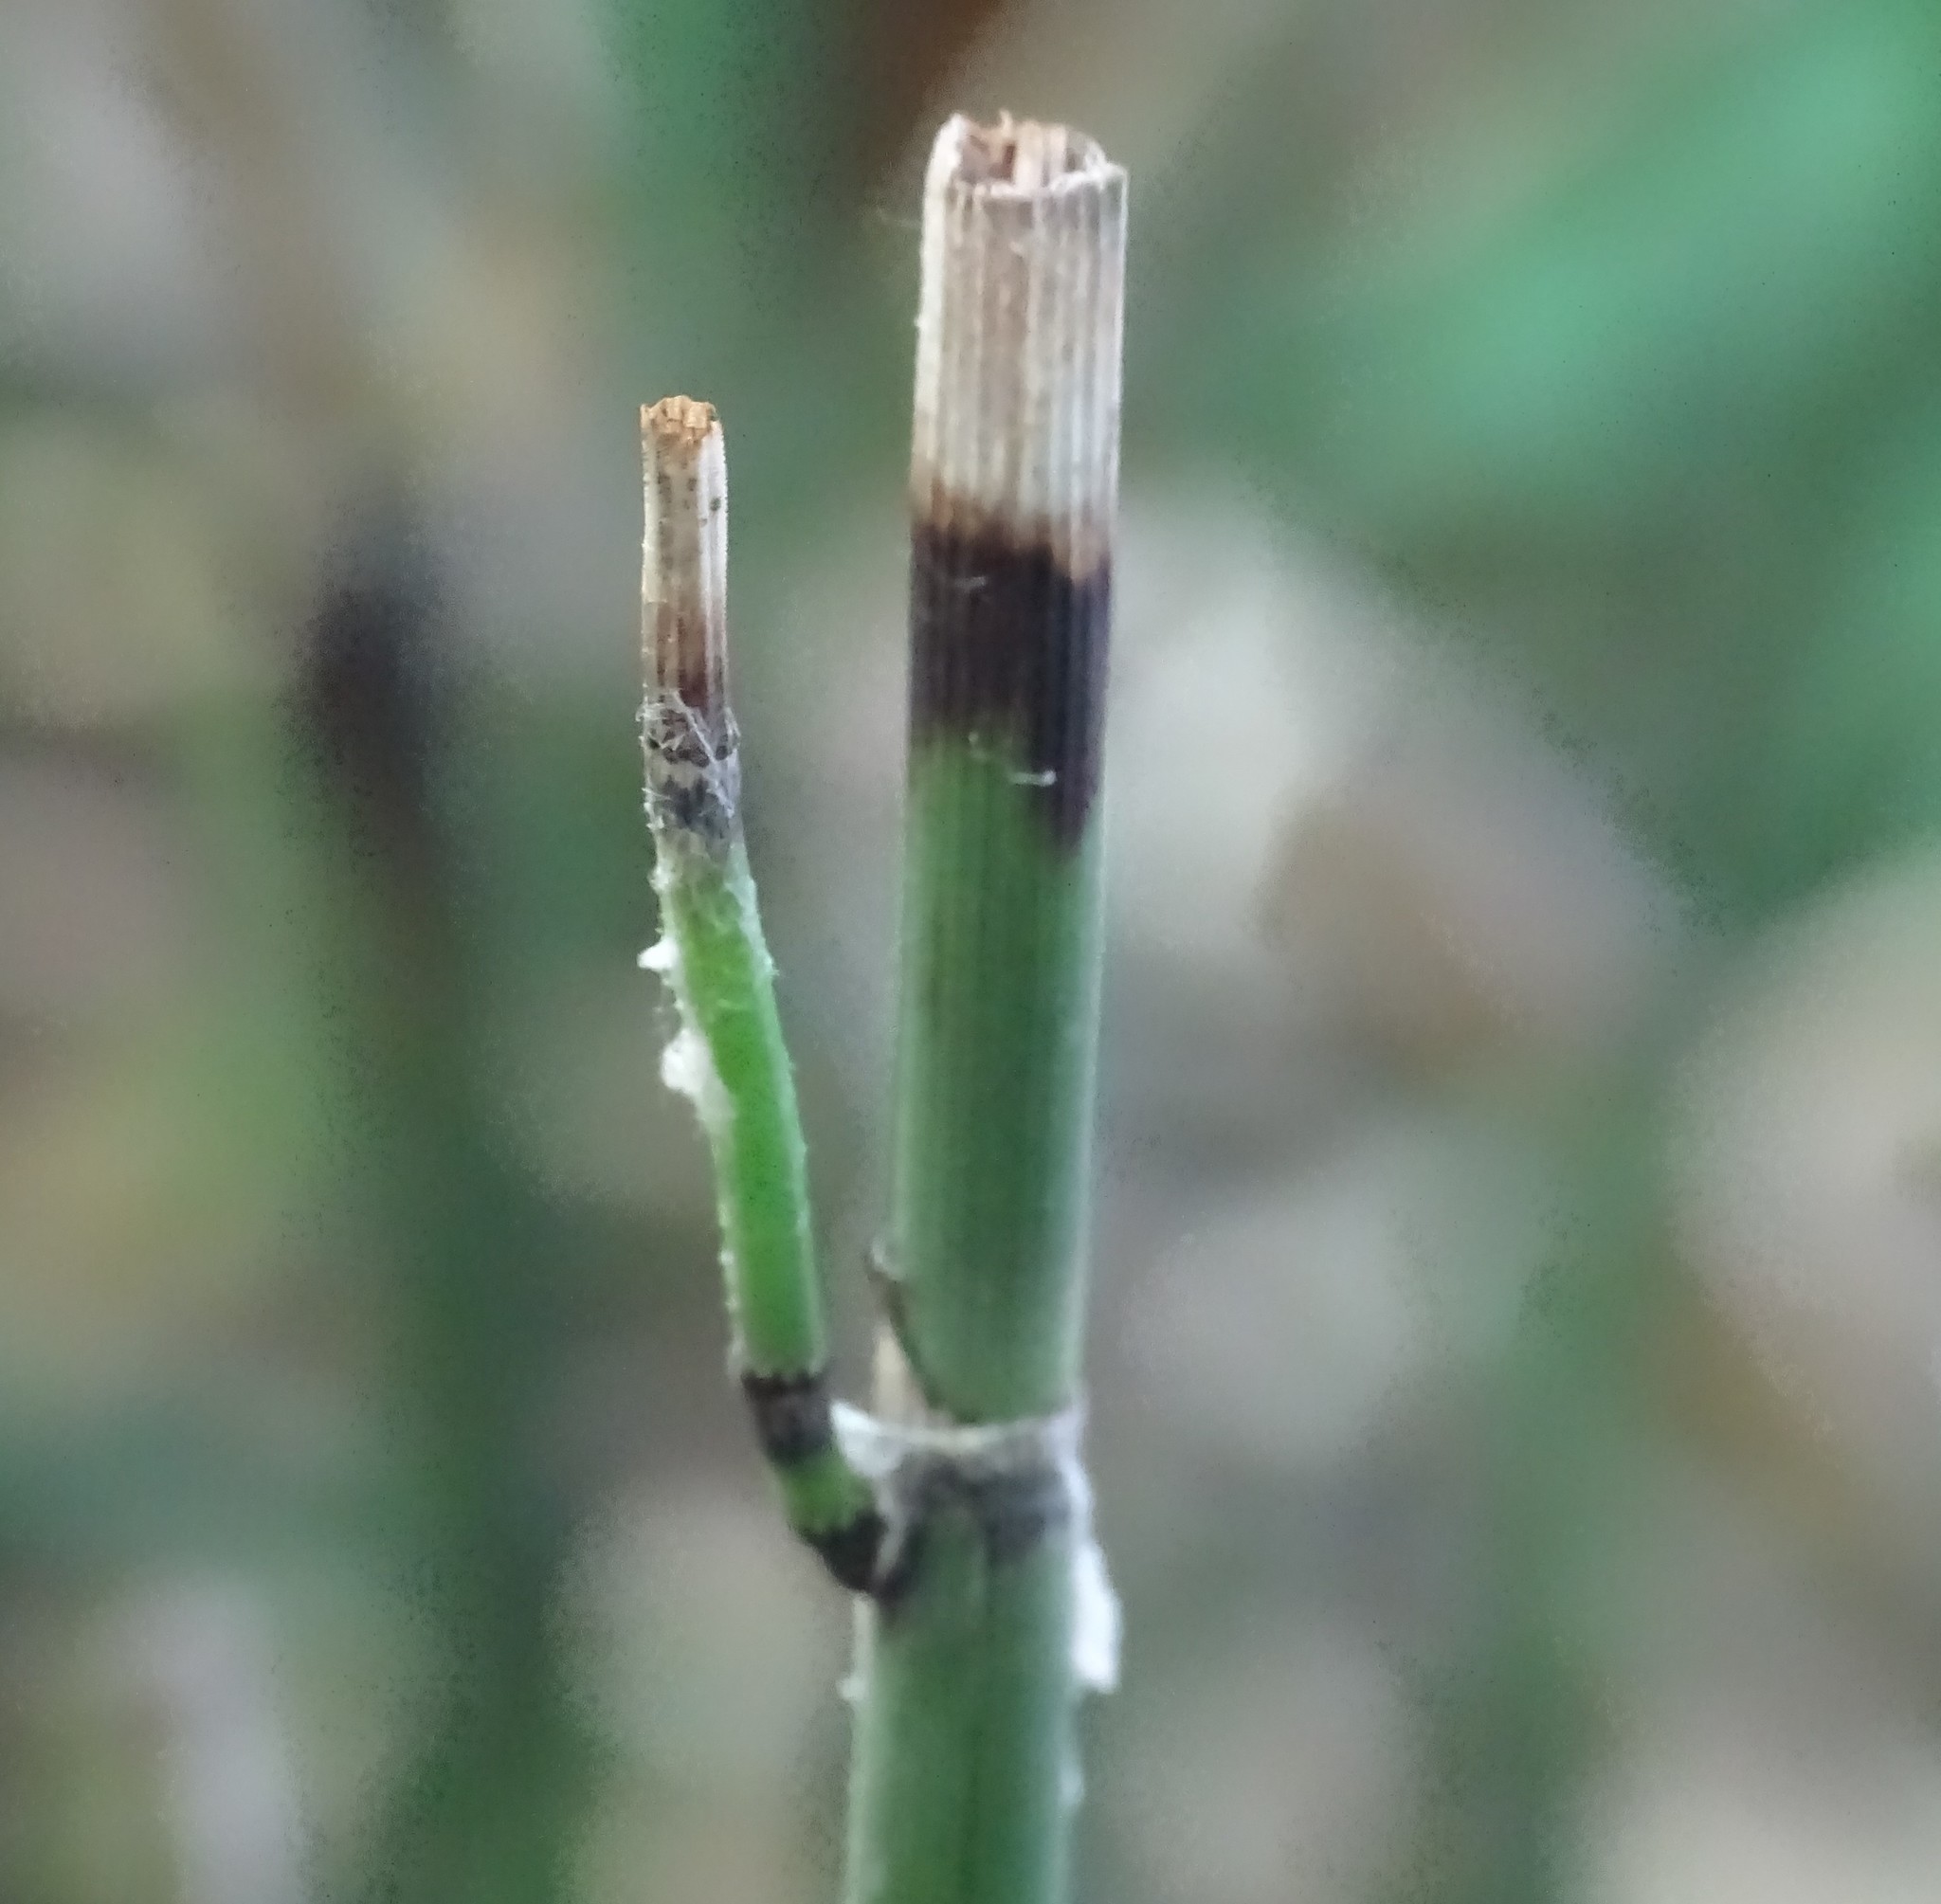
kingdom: Plantae
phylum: Tracheophyta
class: Polypodiopsida
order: Equisetales
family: Equisetaceae
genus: Equisetum
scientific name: Equisetum hyemale
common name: Rough horsetail
